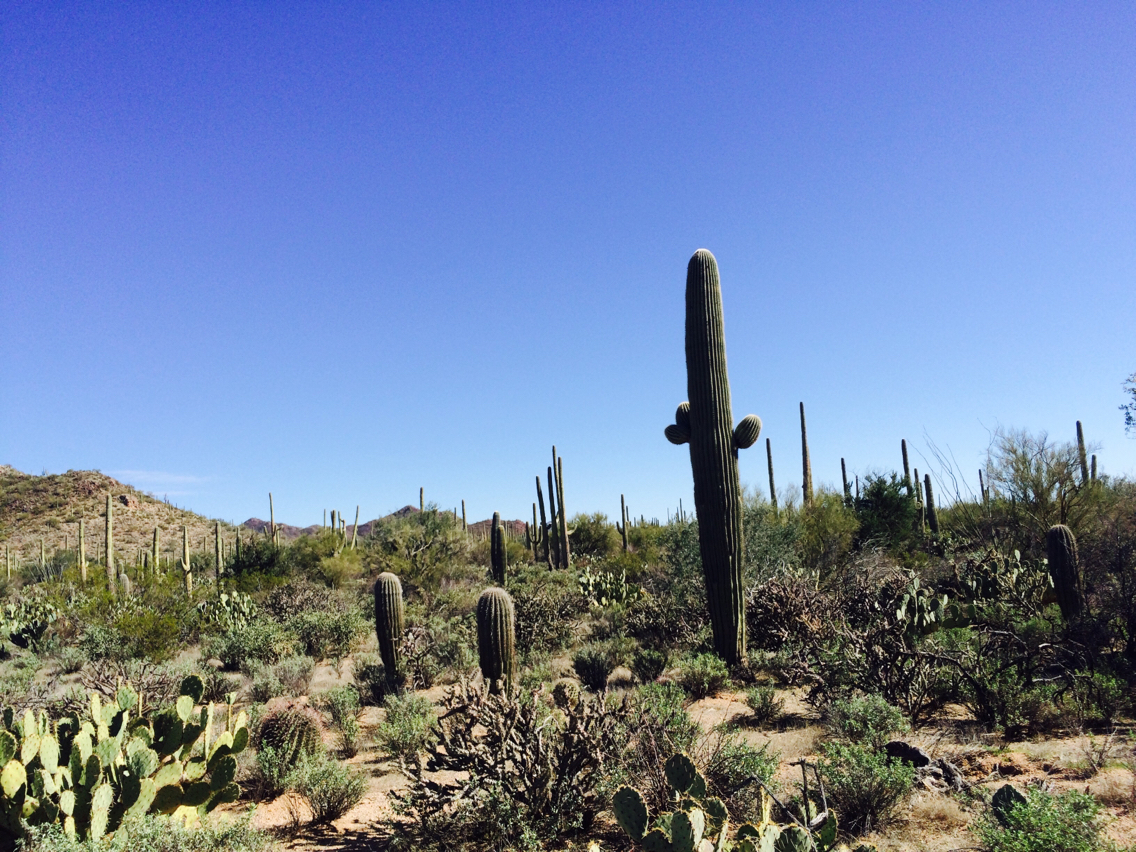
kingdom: Plantae
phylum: Tracheophyta
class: Magnoliopsida
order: Caryophyllales
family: Cactaceae
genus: Carnegiea
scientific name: Carnegiea gigantea
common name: Saguaro
